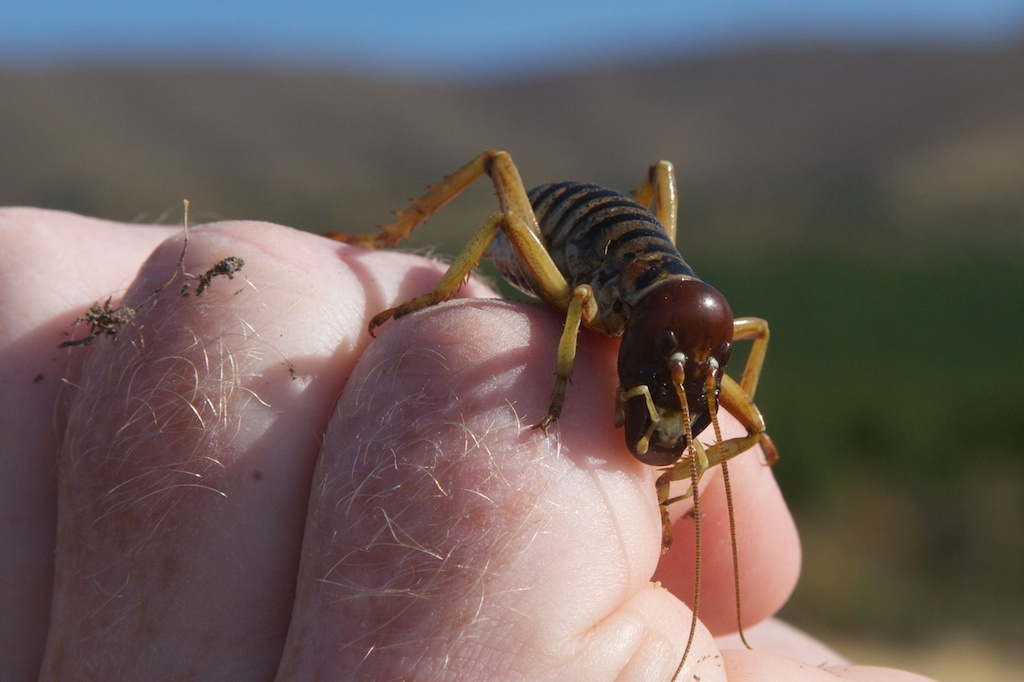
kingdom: Animalia
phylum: Arthropoda
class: Insecta
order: Orthoptera
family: Anostostomatidae
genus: Hemideina
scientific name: Hemideina maori
